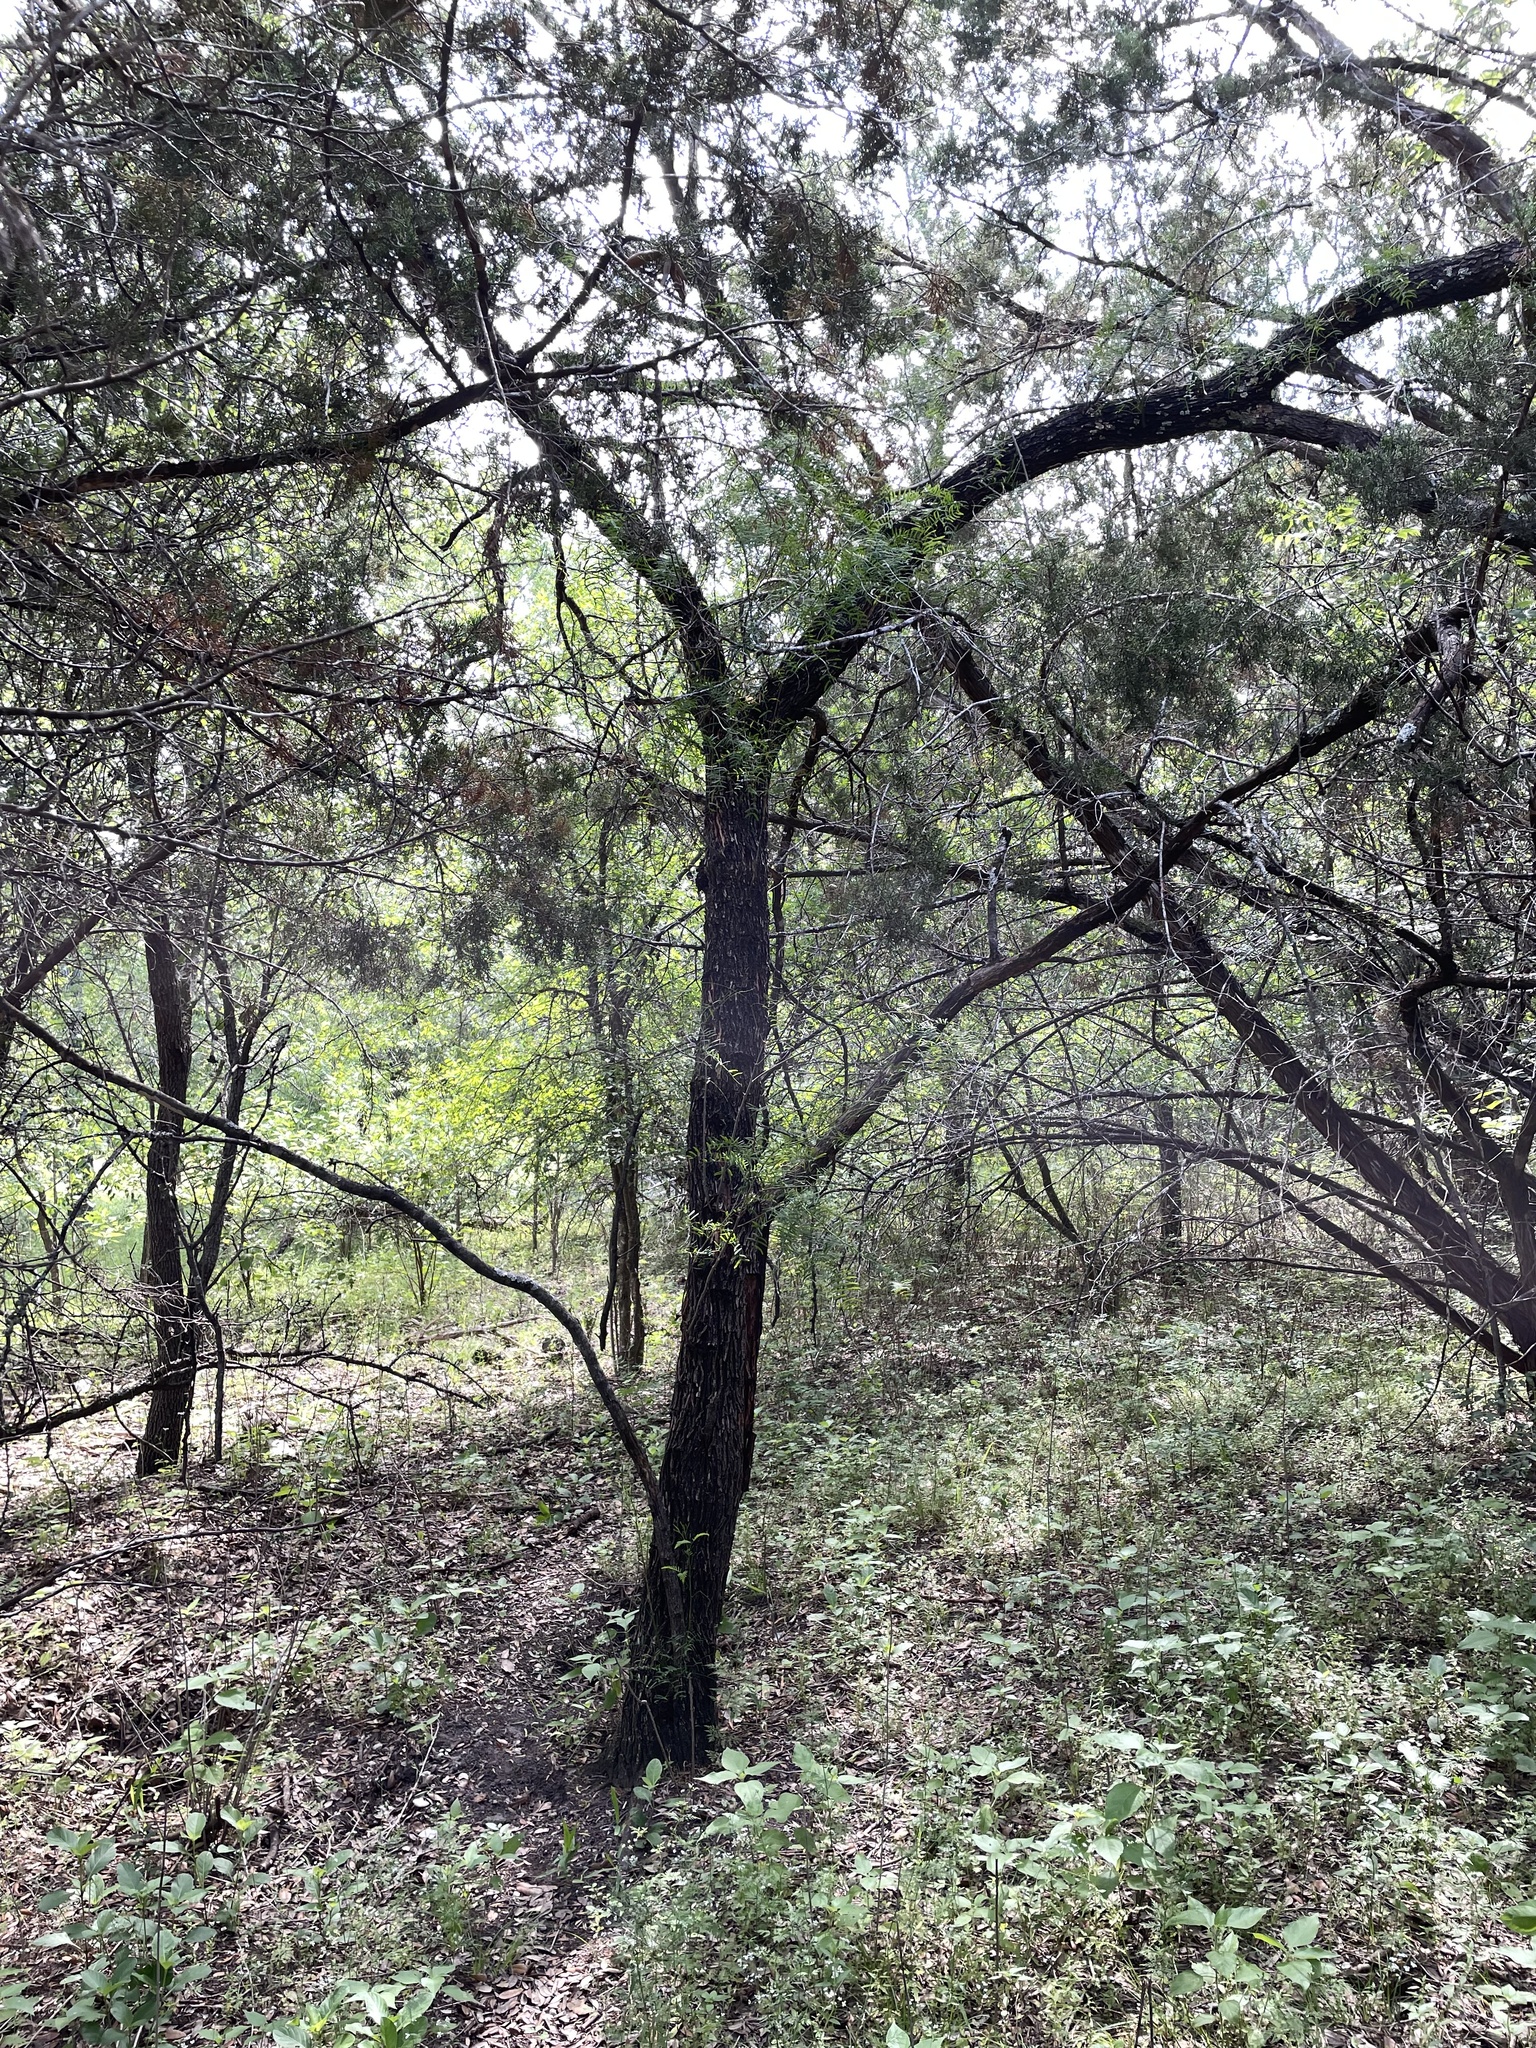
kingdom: Plantae
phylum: Tracheophyta
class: Magnoliopsida
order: Fabales
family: Fabaceae
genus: Prosopis
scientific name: Prosopis glandulosa
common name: Honey mesquite
